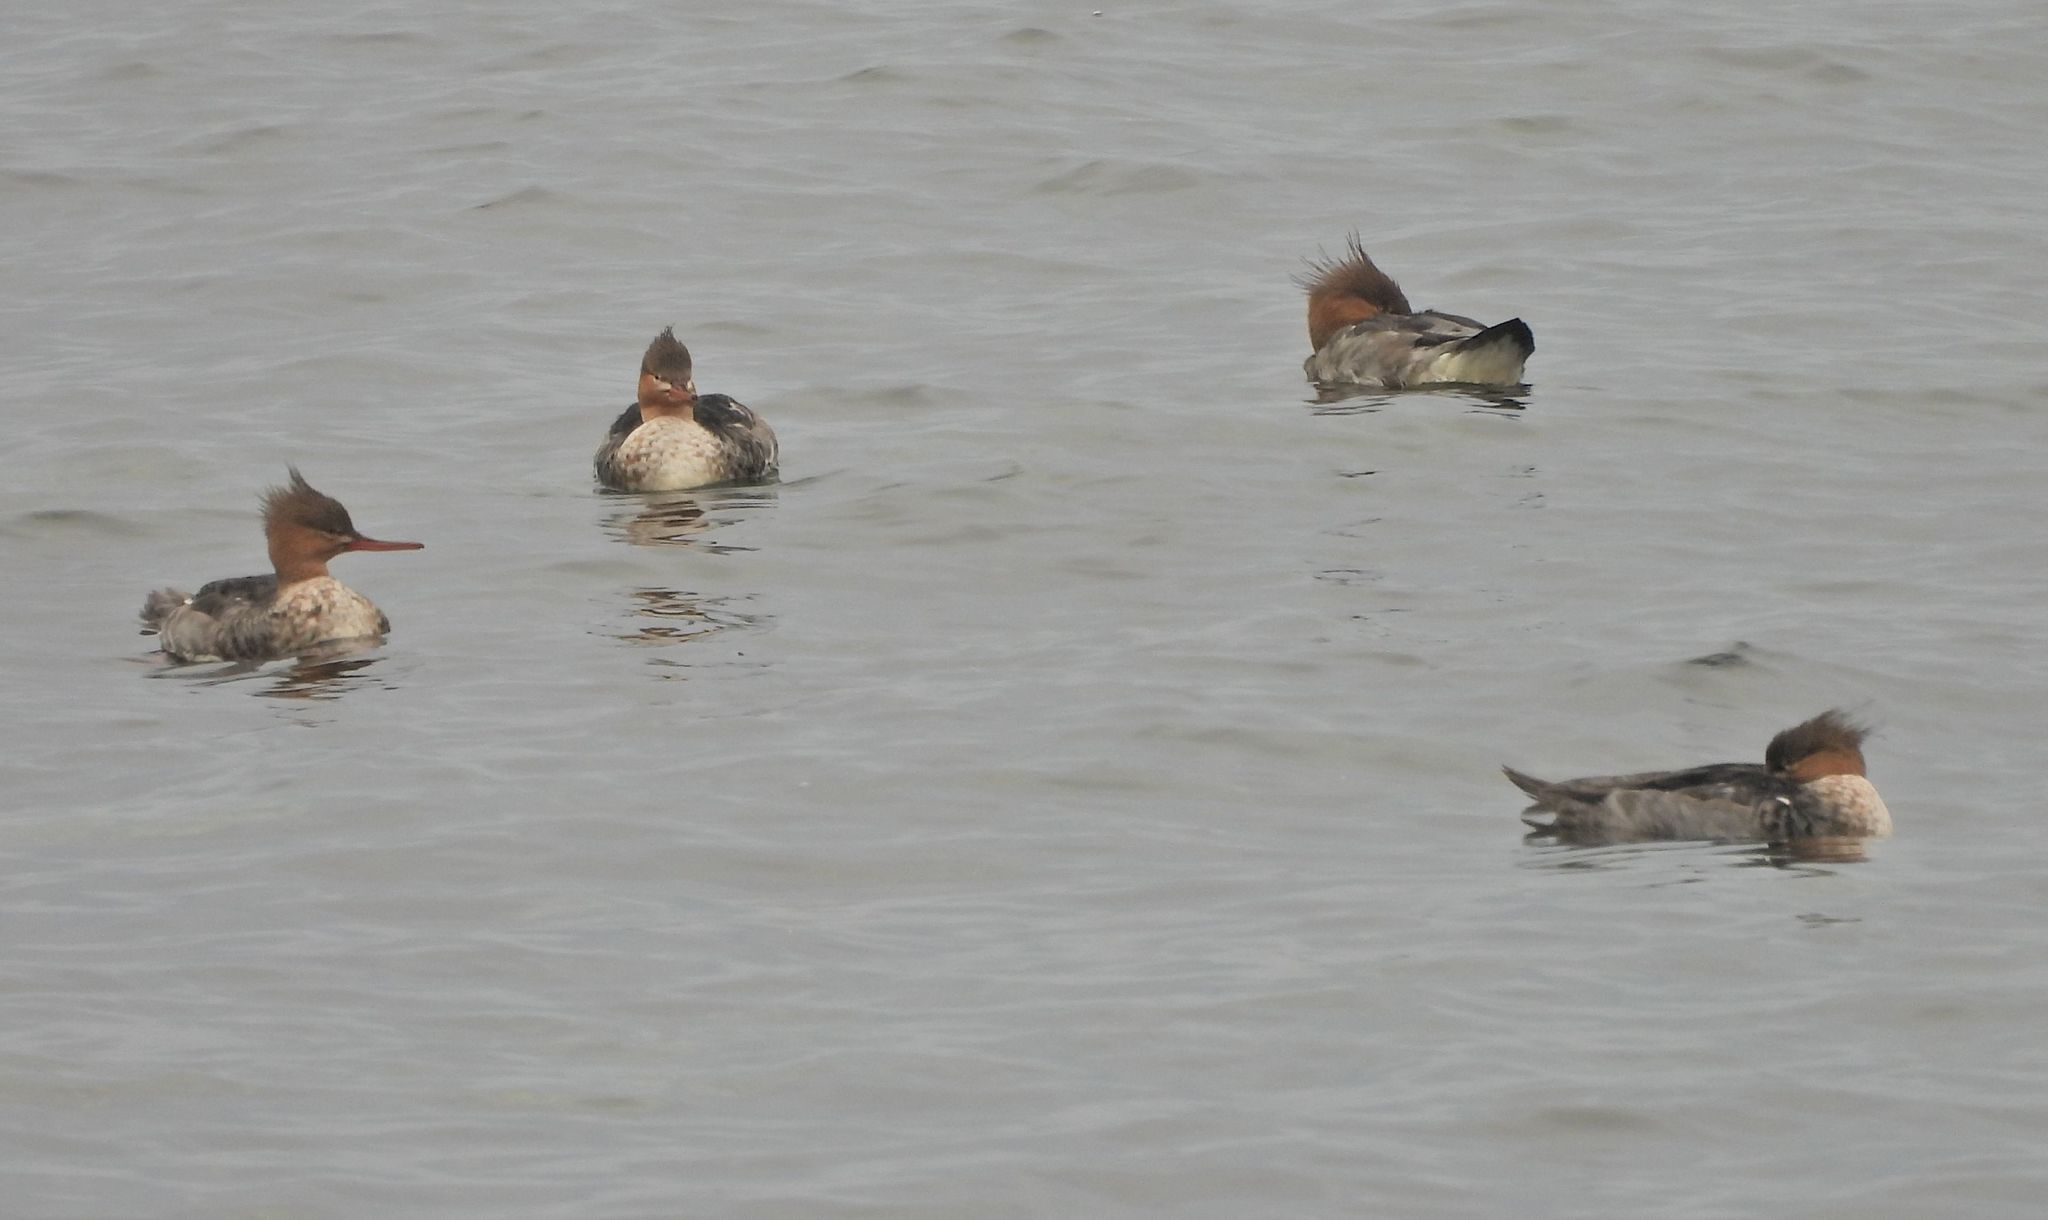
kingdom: Animalia
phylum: Chordata
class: Aves
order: Anseriformes
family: Anatidae
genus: Mergus
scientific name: Mergus serrator
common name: Red-breasted merganser
